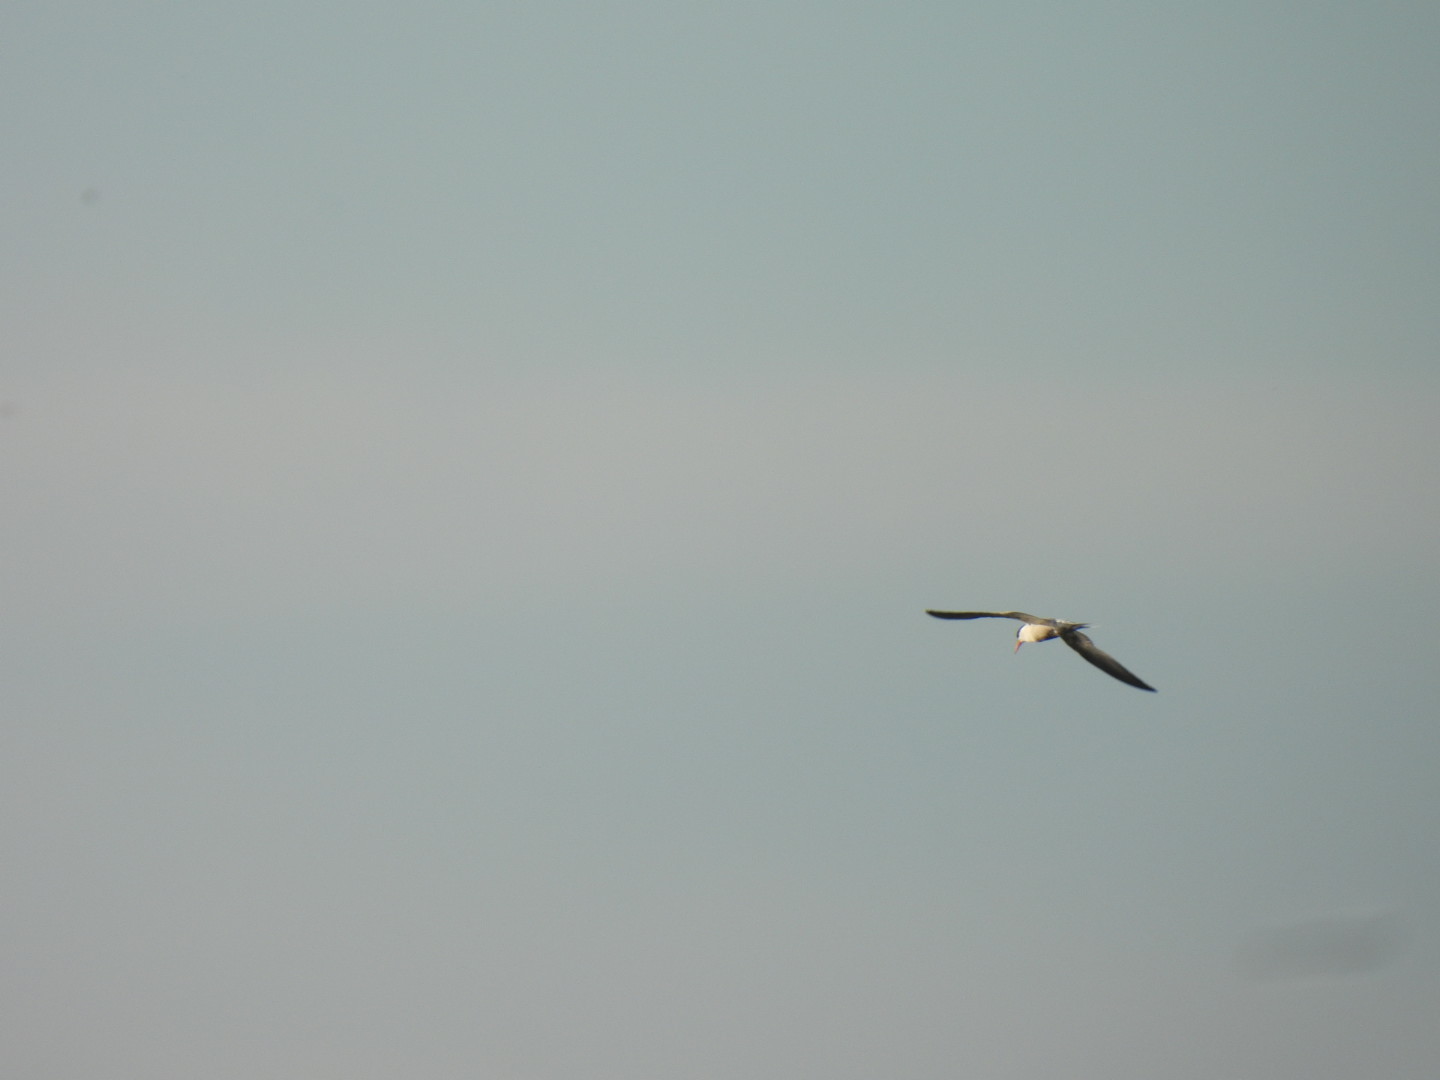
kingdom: Animalia
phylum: Chordata
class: Aves
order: Charadriiformes
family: Laridae
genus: Sterna
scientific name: Sterna hirundo
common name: Common tern
